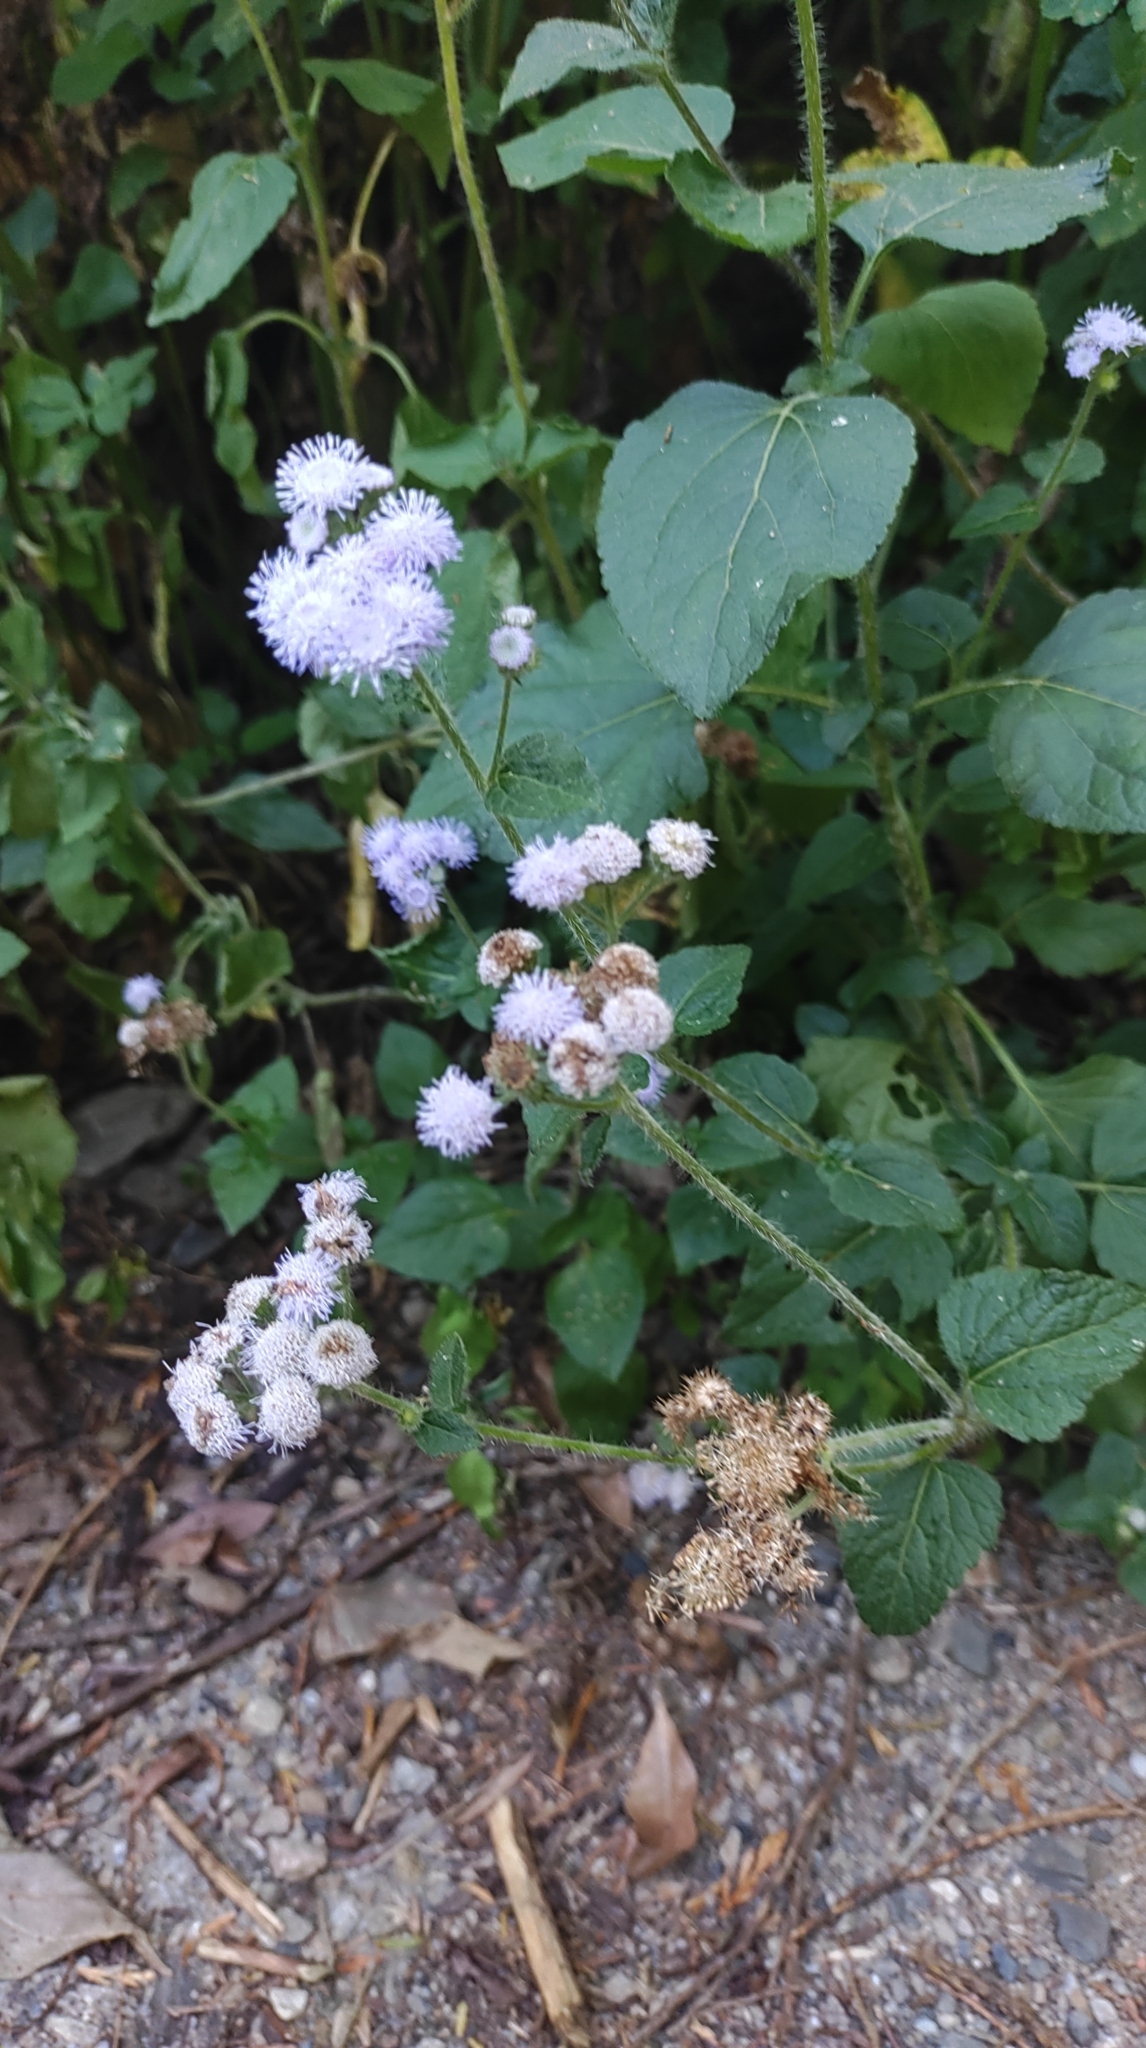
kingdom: Plantae
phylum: Tracheophyta
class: Magnoliopsida
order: Asterales
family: Asteraceae
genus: Ageratum
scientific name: Ageratum houstonianum
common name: Bluemink
